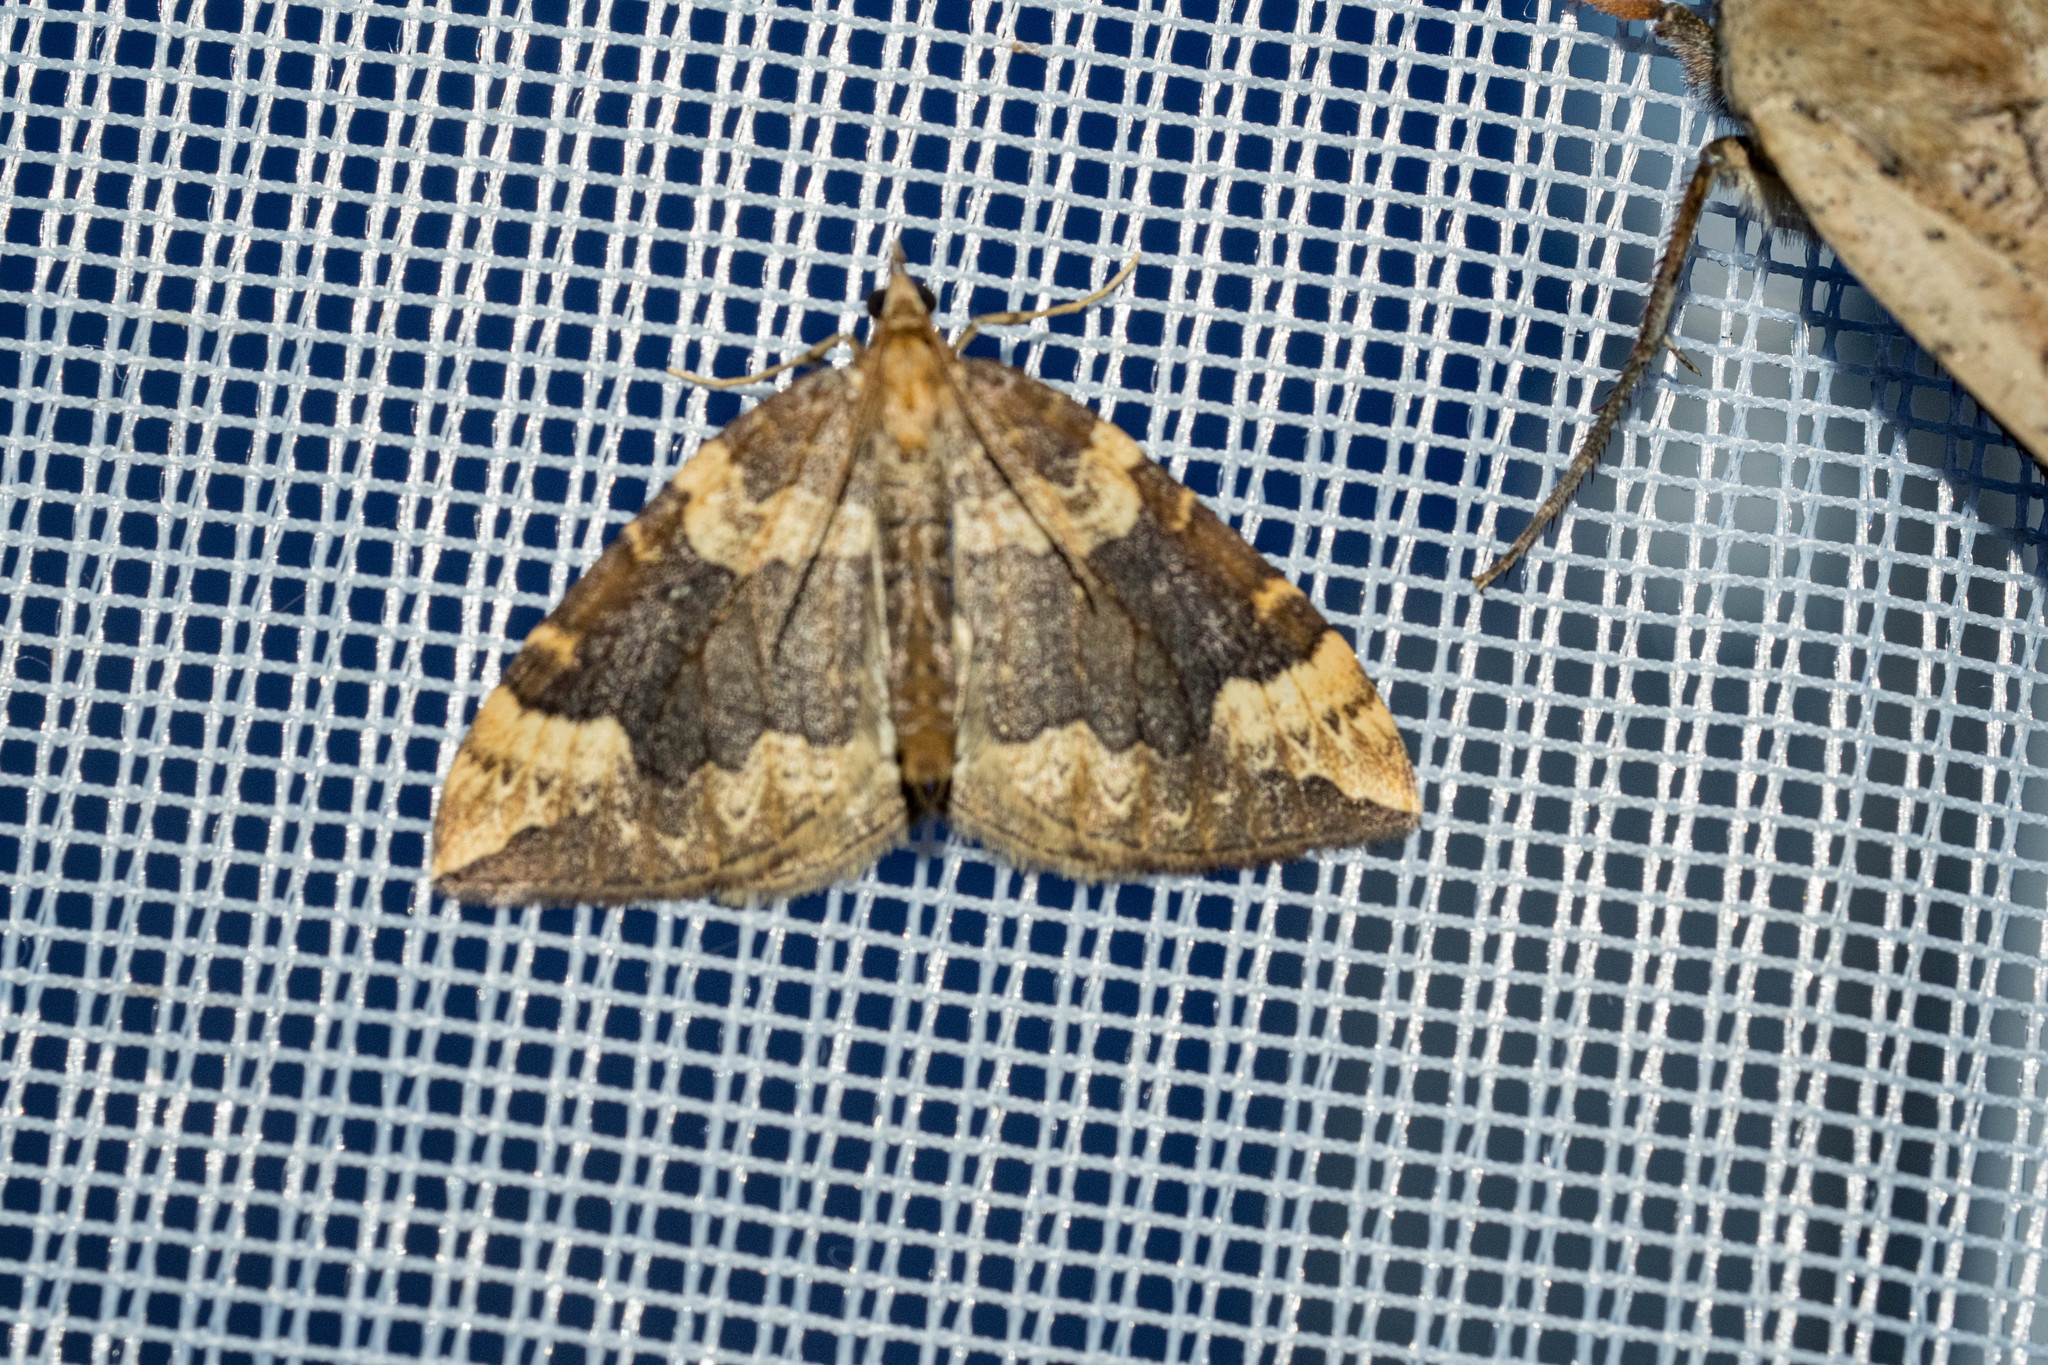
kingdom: Animalia
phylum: Arthropoda
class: Insecta
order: Lepidoptera
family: Geometridae
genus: Eulithis
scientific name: Eulithis populata
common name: Northern spinach
